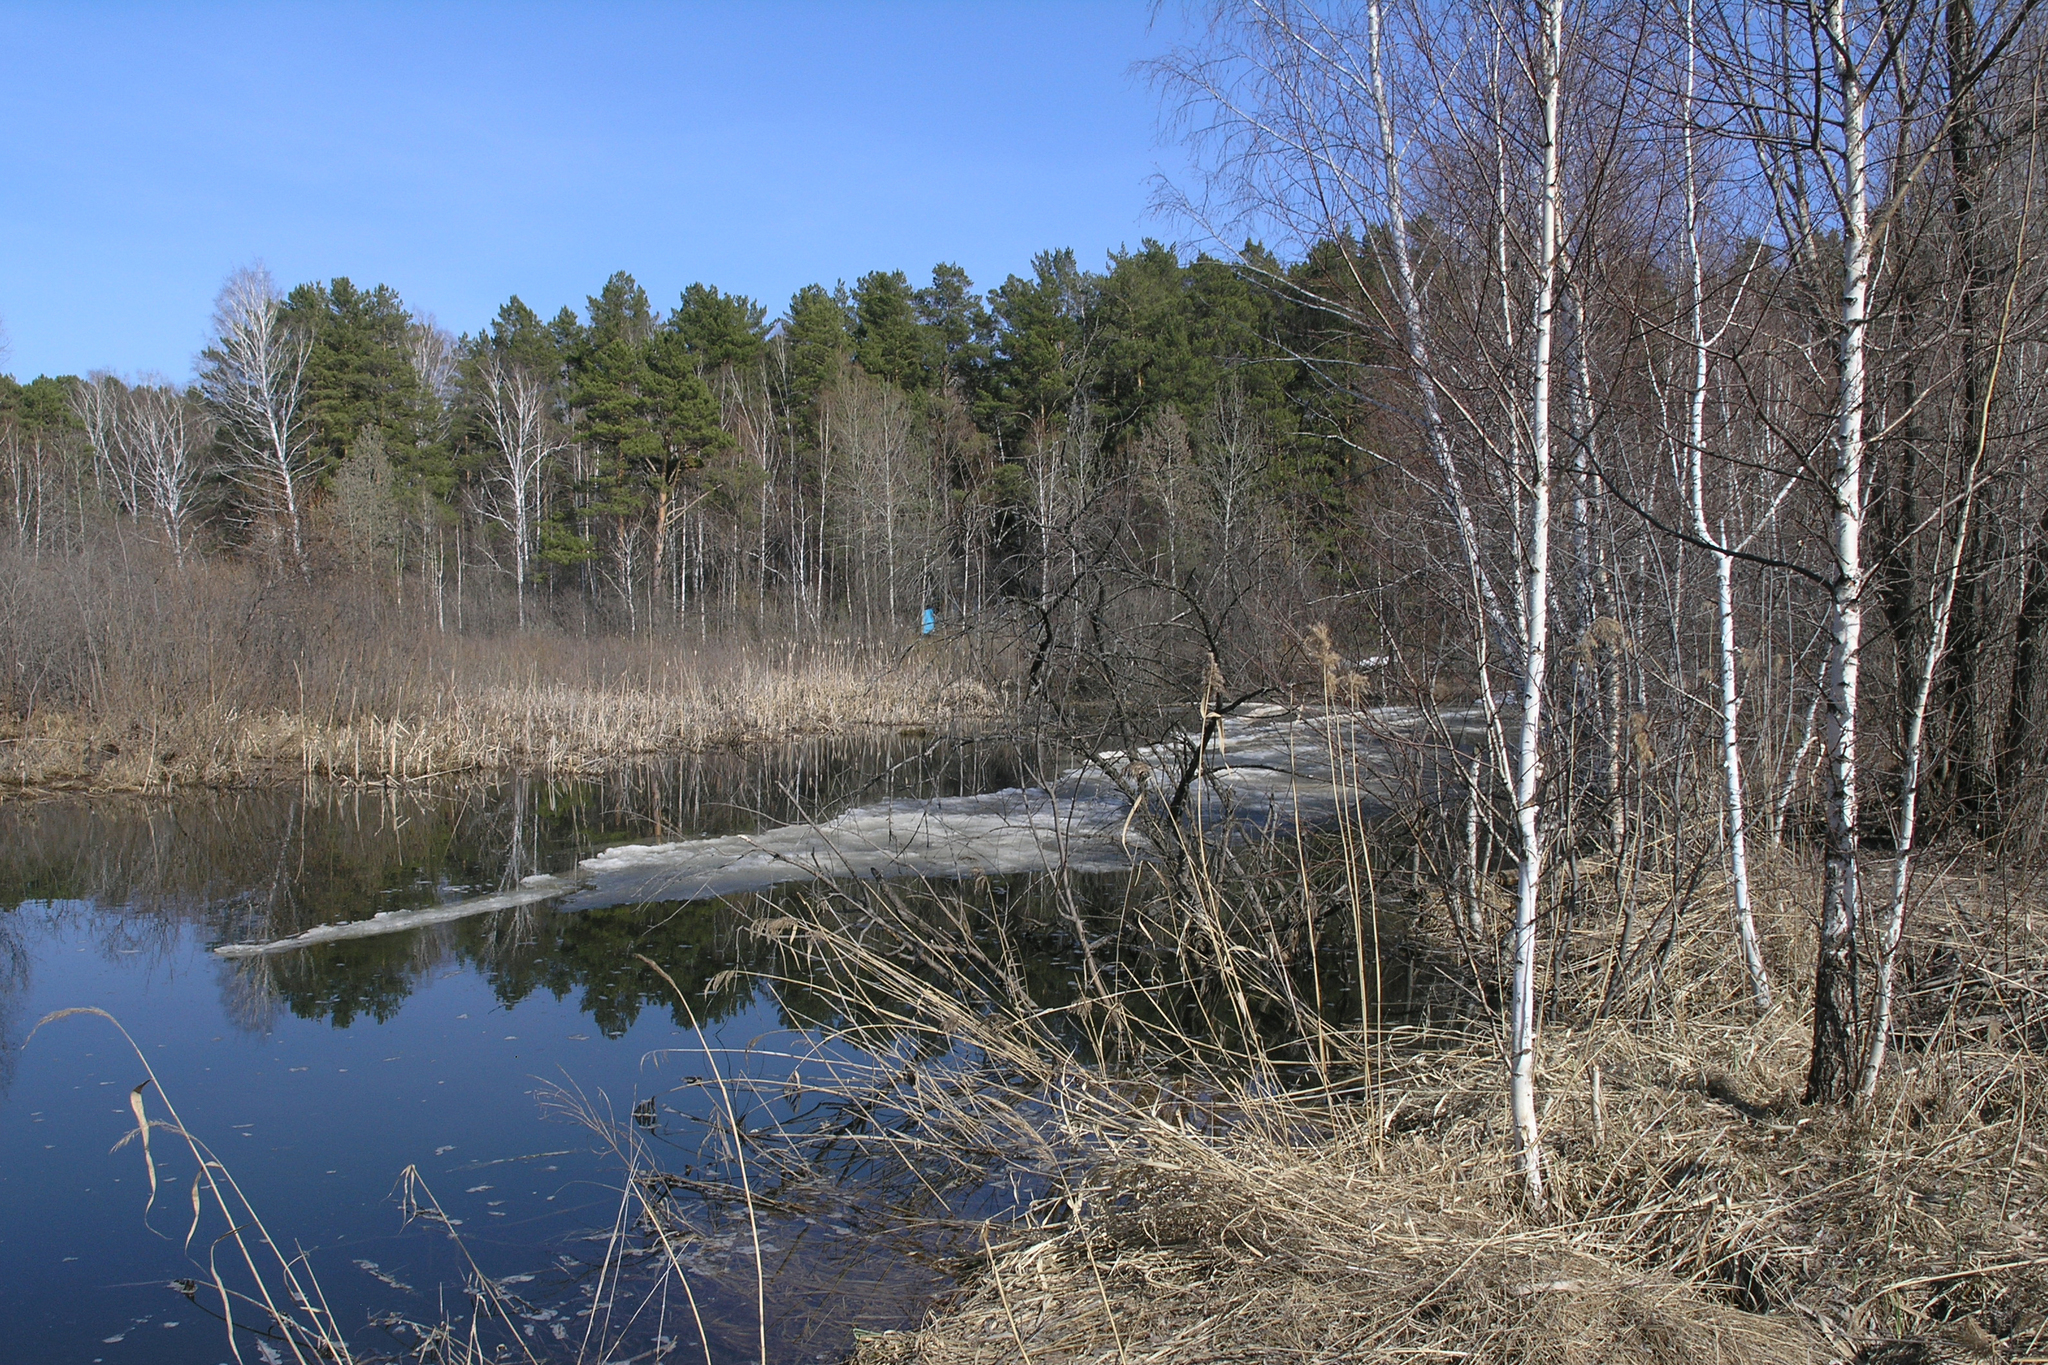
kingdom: Plantae
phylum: Tracheophyta
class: Pinopsida
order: Pinales
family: Pinaceae
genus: Pinus
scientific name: Pinus sylvestris
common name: Scots pine
